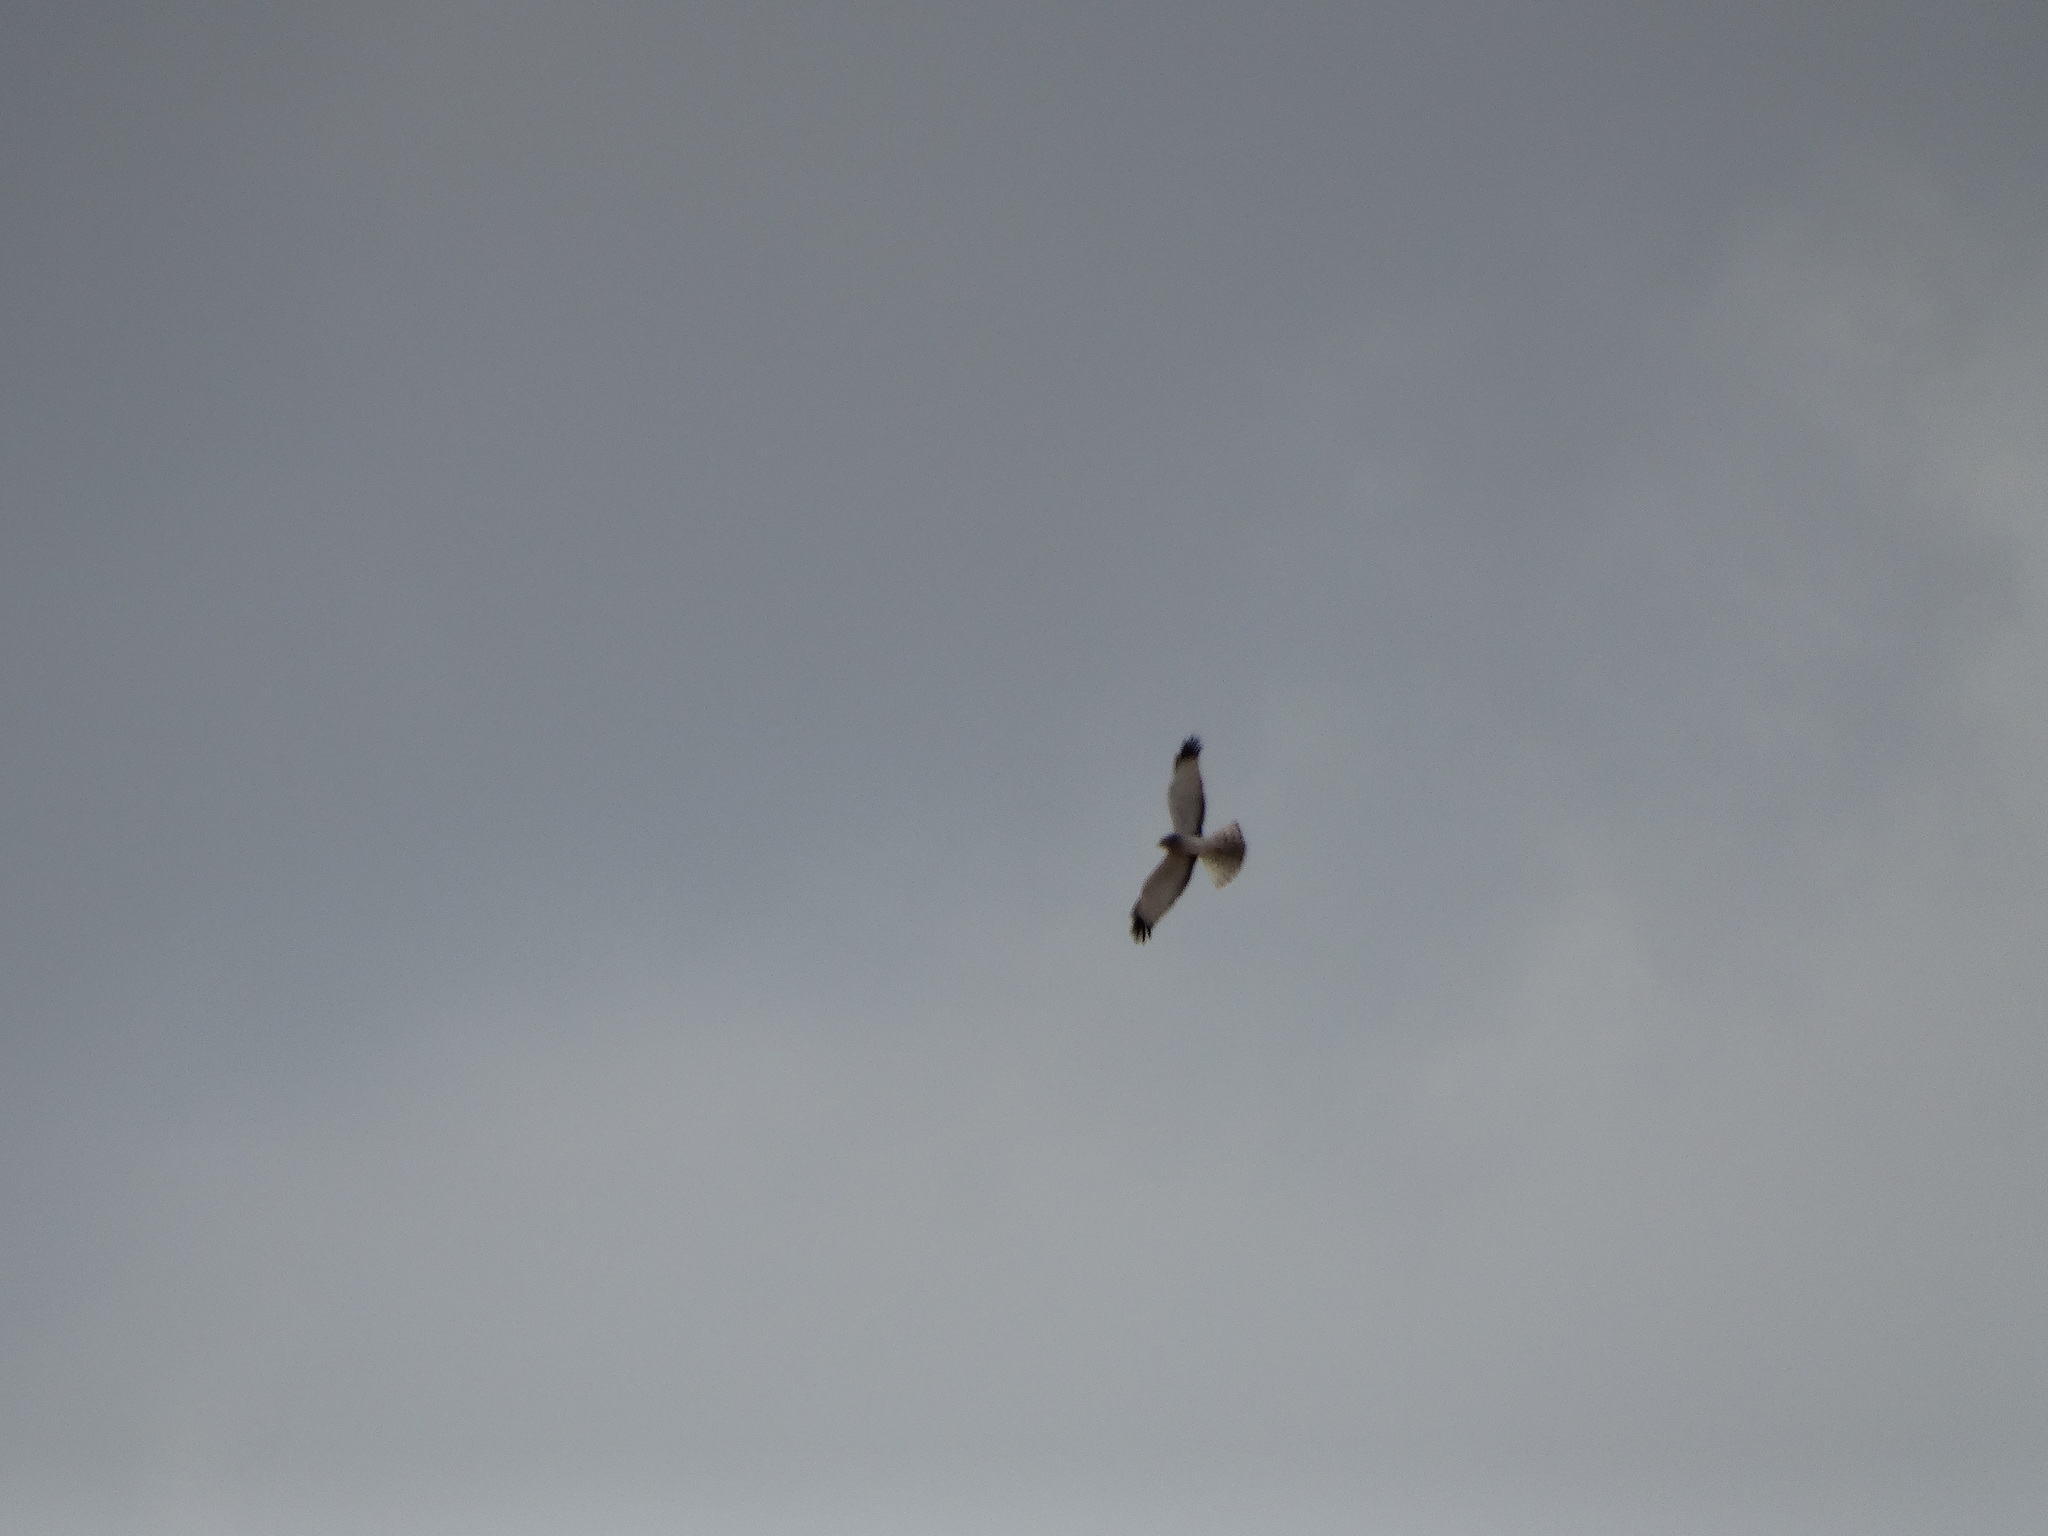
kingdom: Animalia
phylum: Chordata
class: Aves
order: Accipitriformes
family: Accipitridae
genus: Circus
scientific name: Circus cyaneus
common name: Hen harrier
